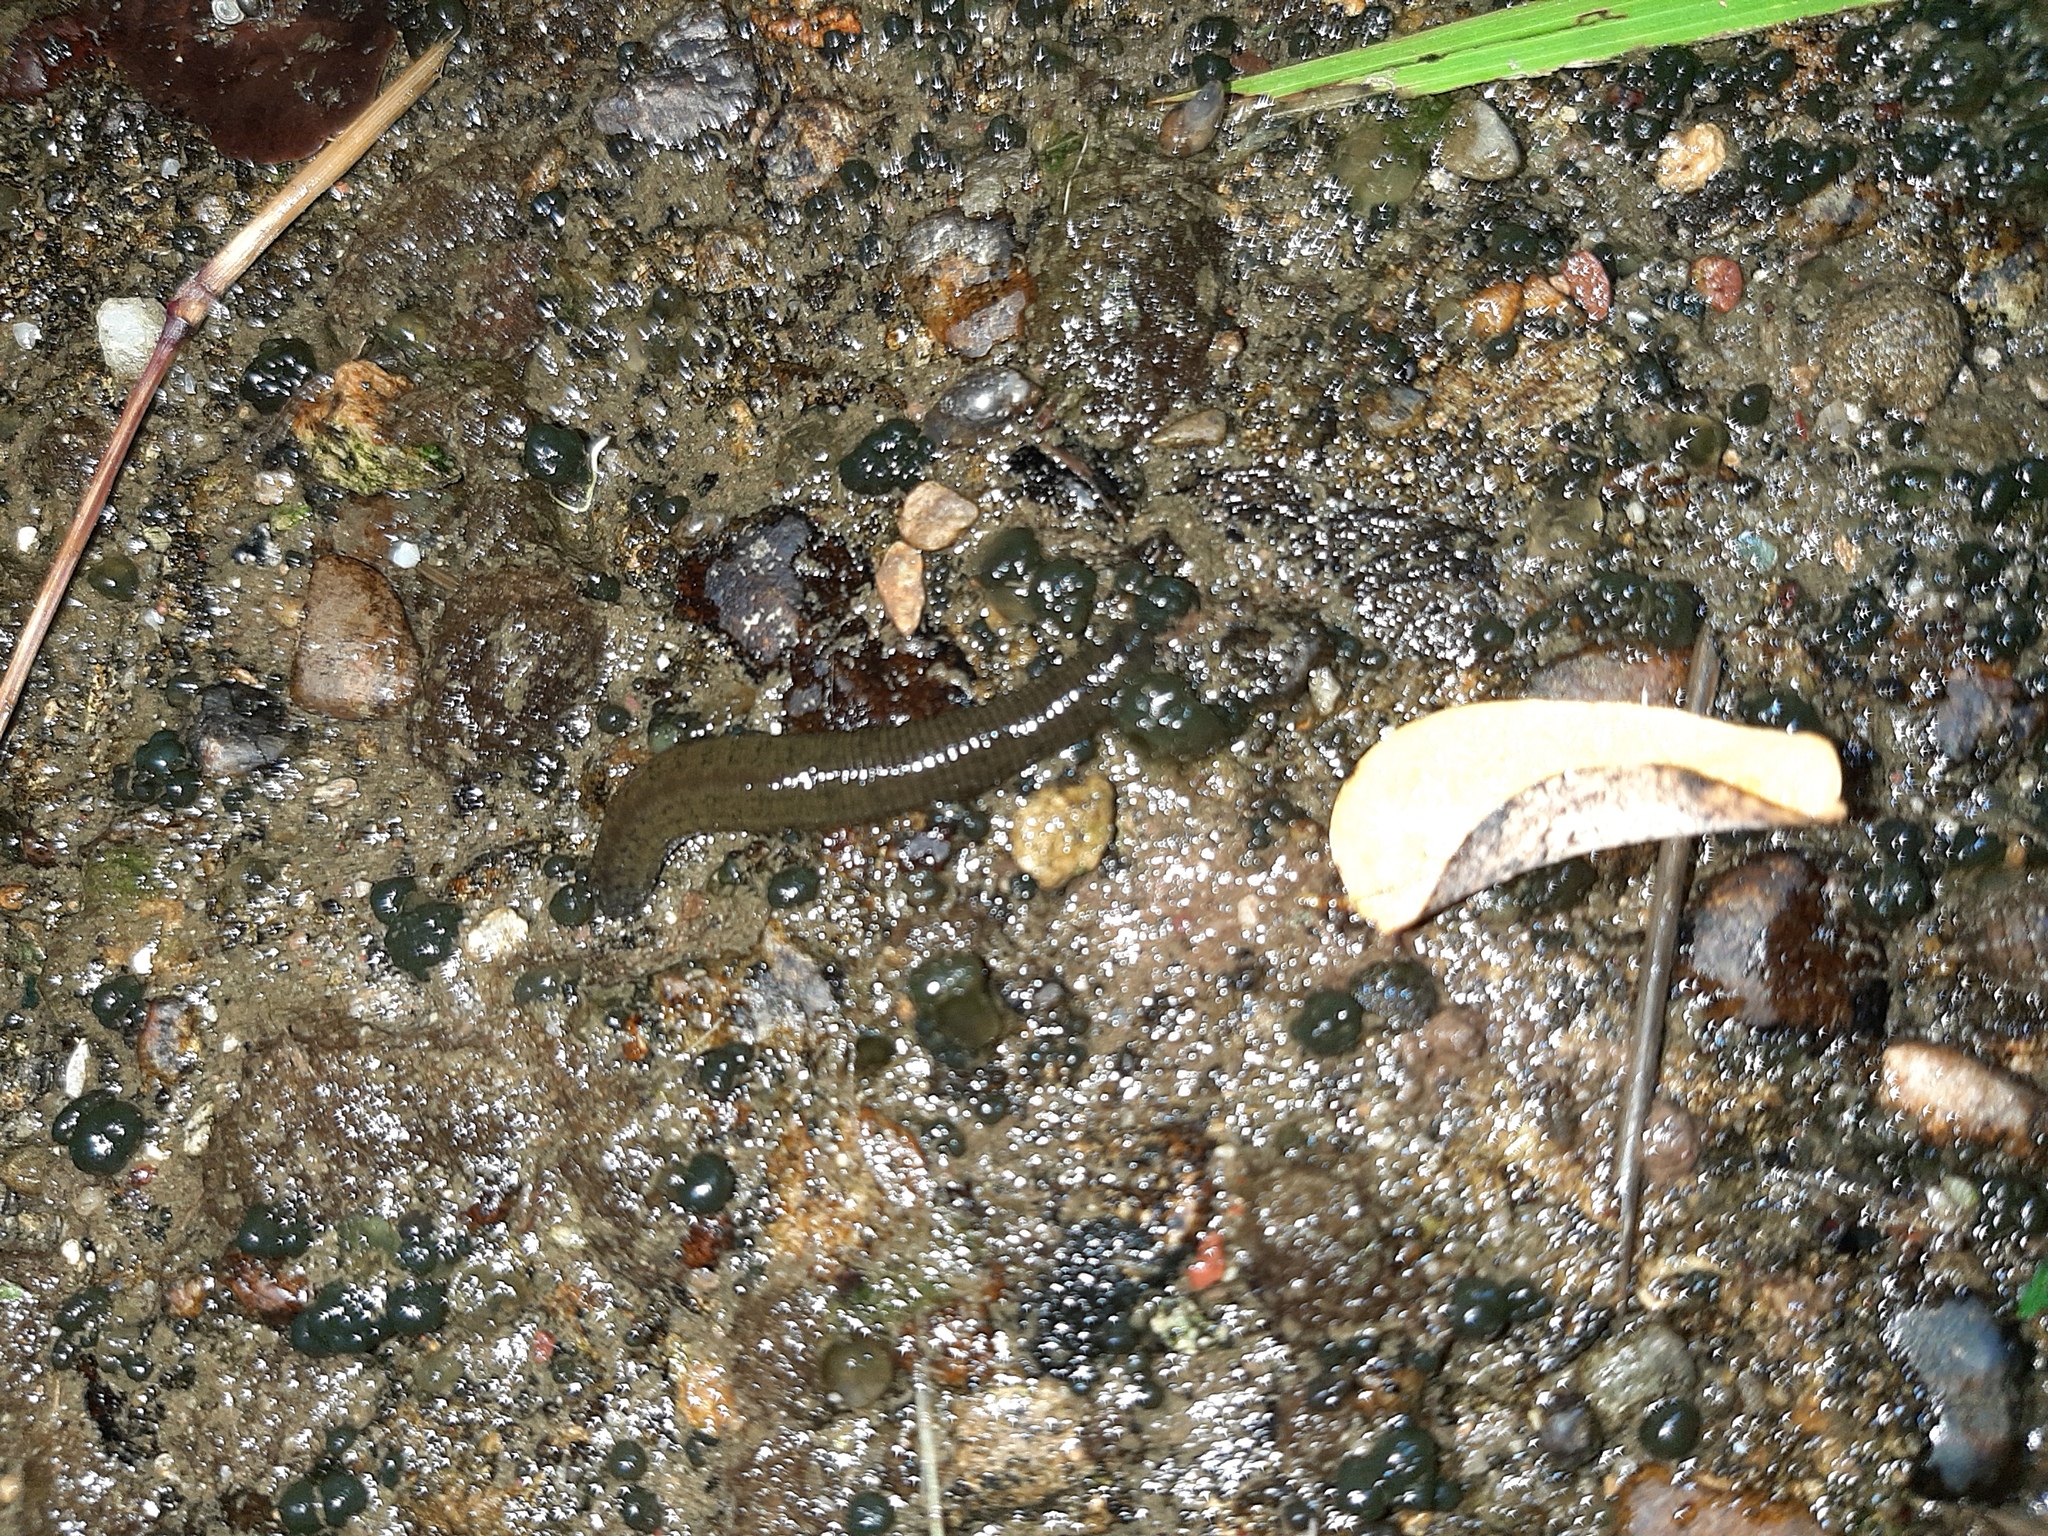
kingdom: Animalia
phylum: Annelida
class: Clitellata
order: Arhynchobdellida
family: Haemopidae
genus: Haemopis
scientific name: Haemopis sanguisuga
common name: Horse leech
